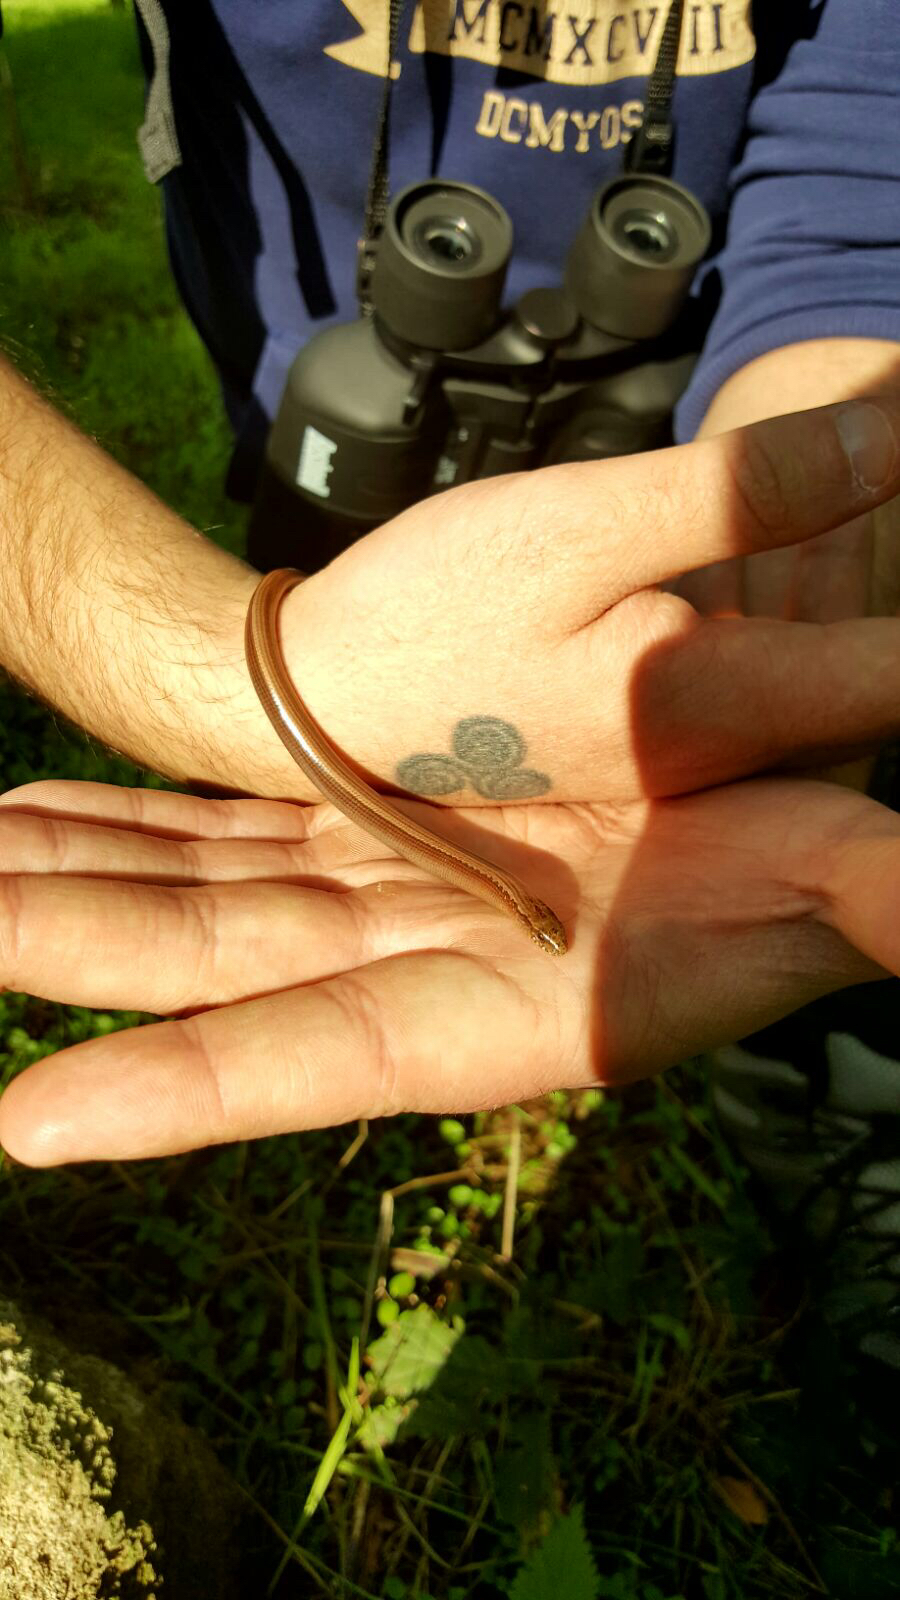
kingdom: Animalia
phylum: Chordata
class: Squamata
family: Anguidae
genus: Anguis
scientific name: Anguis veronensis
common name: Italian slow worm
